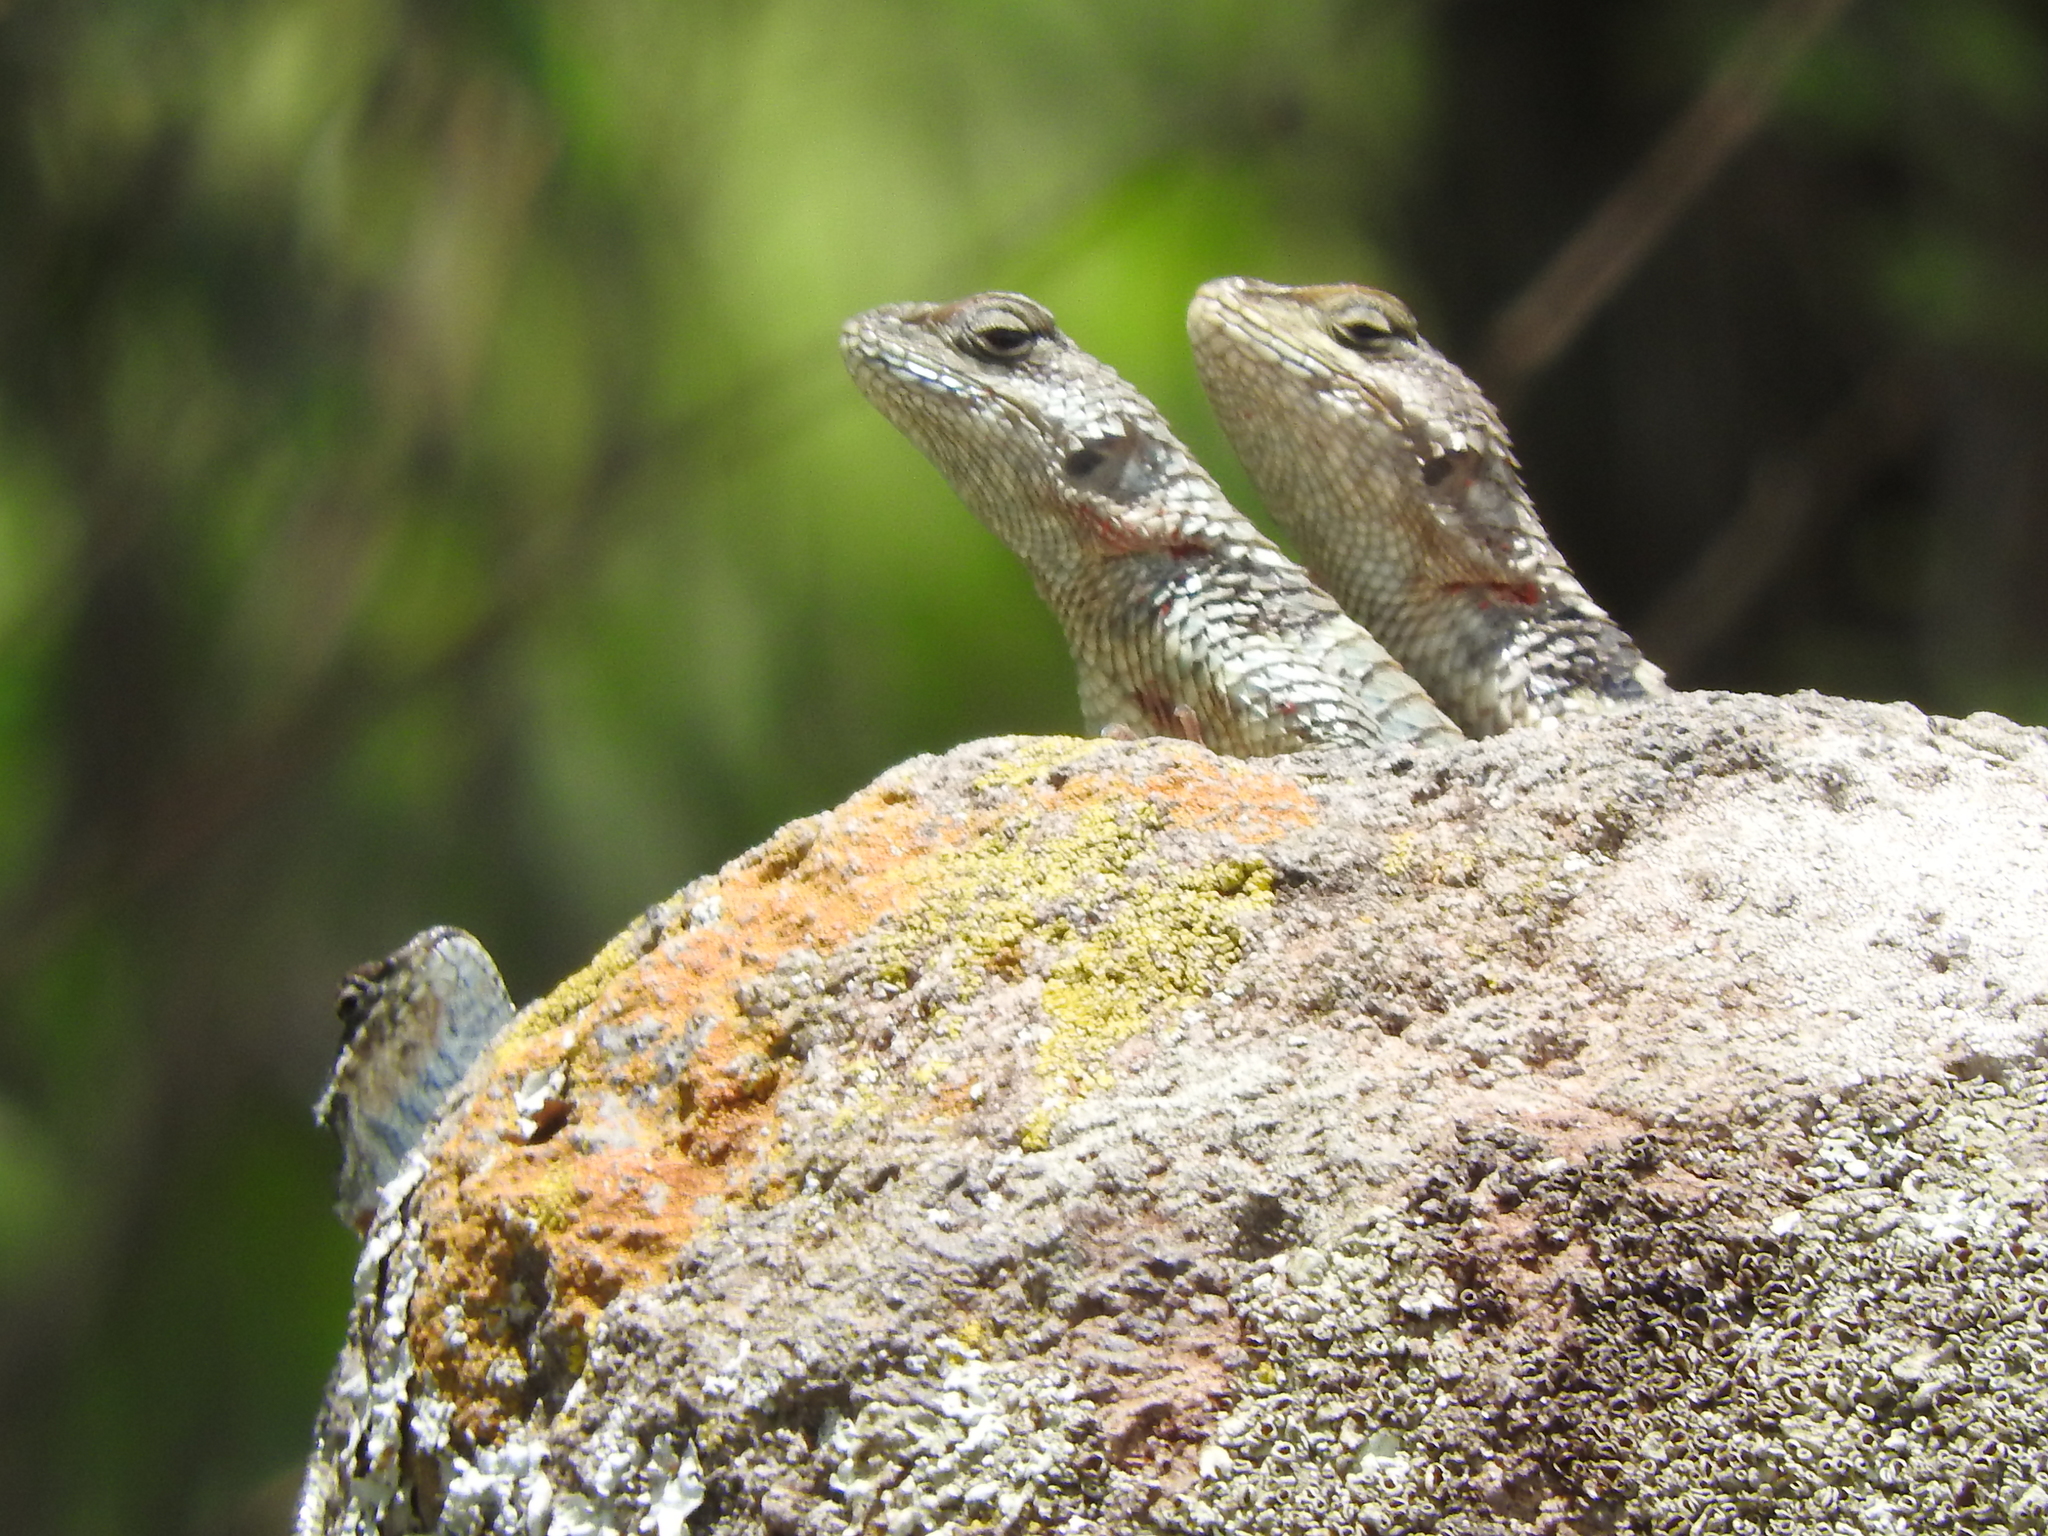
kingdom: Animalia
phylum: Chordata
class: Squamata
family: Phrynosomatidae
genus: Sceloporus
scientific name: Sceloporus torquatus
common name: Central plateau torquate lizard [melanogaster]
